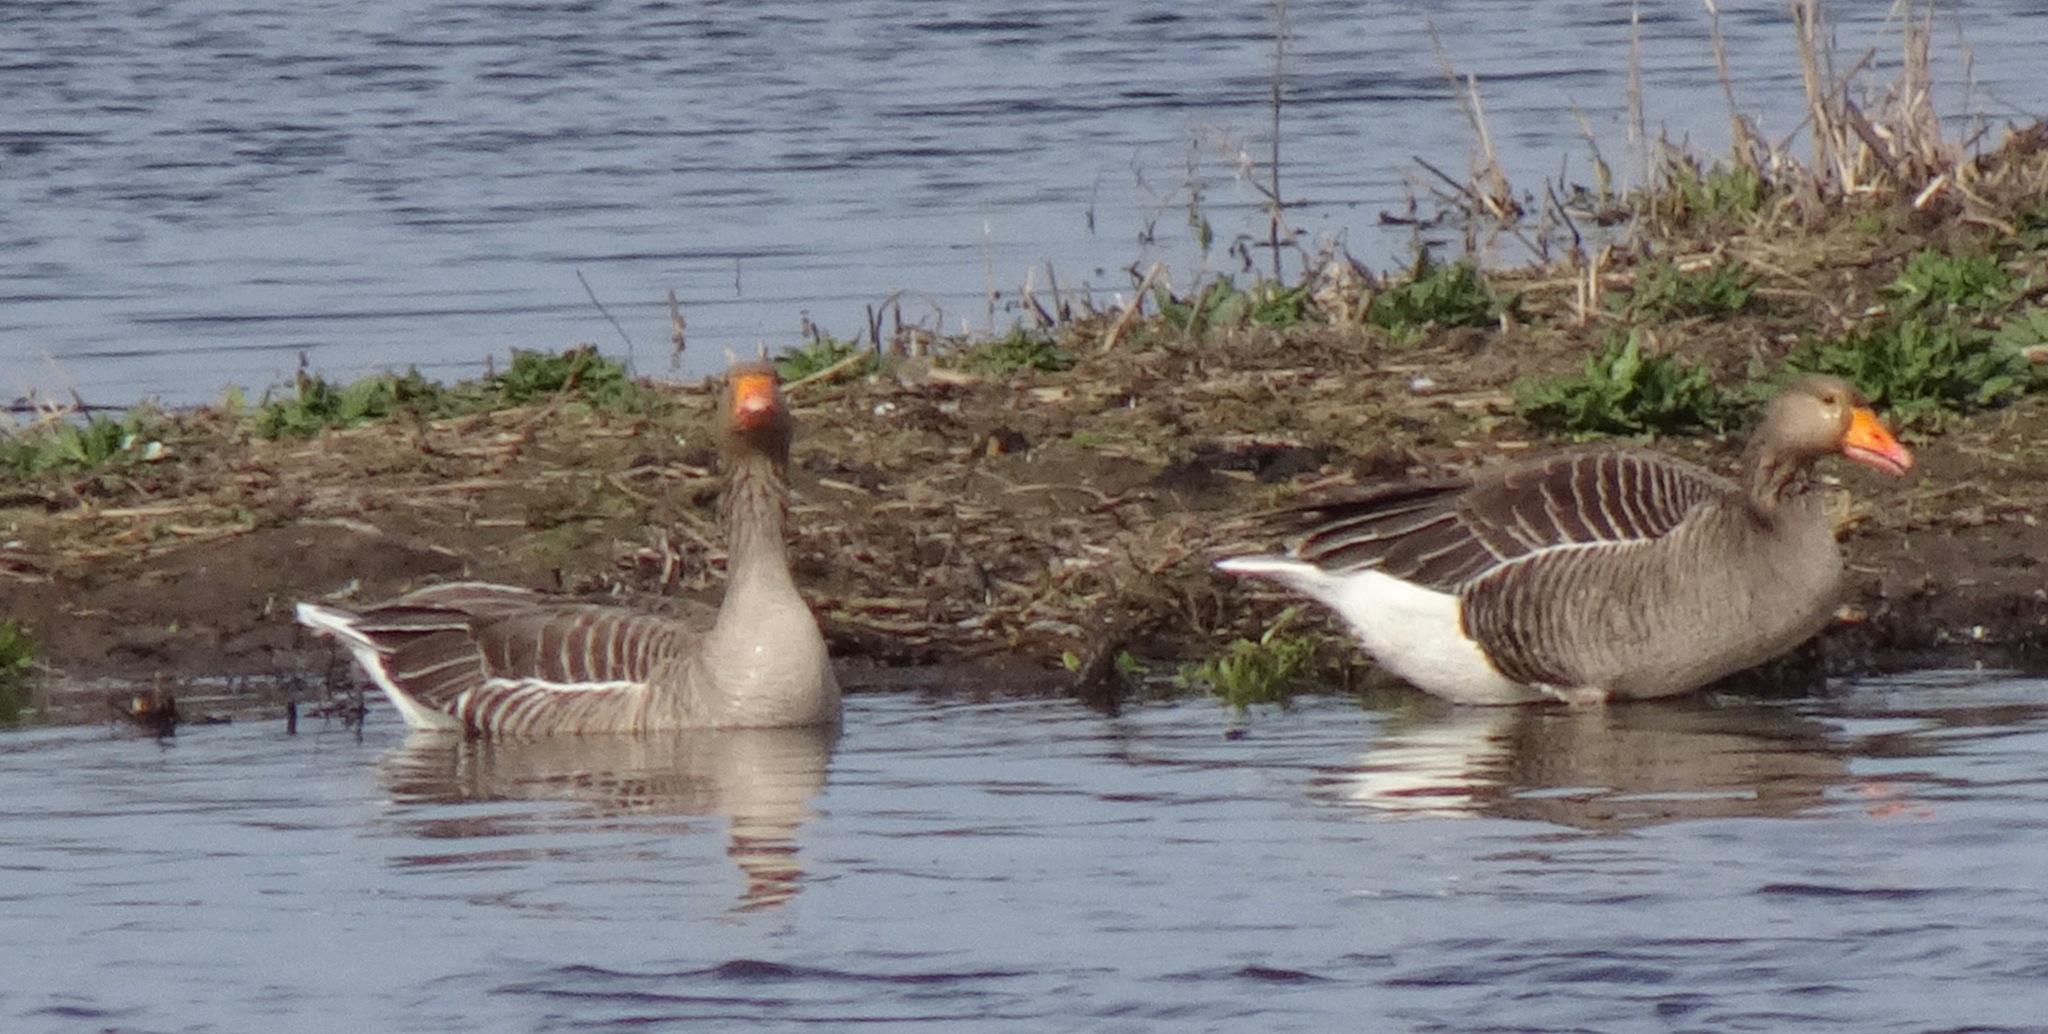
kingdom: Animalia
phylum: Chordata
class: Aves
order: Anseriformes
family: Anatidae
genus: Anser
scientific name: Anser anser
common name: Greylag goose
